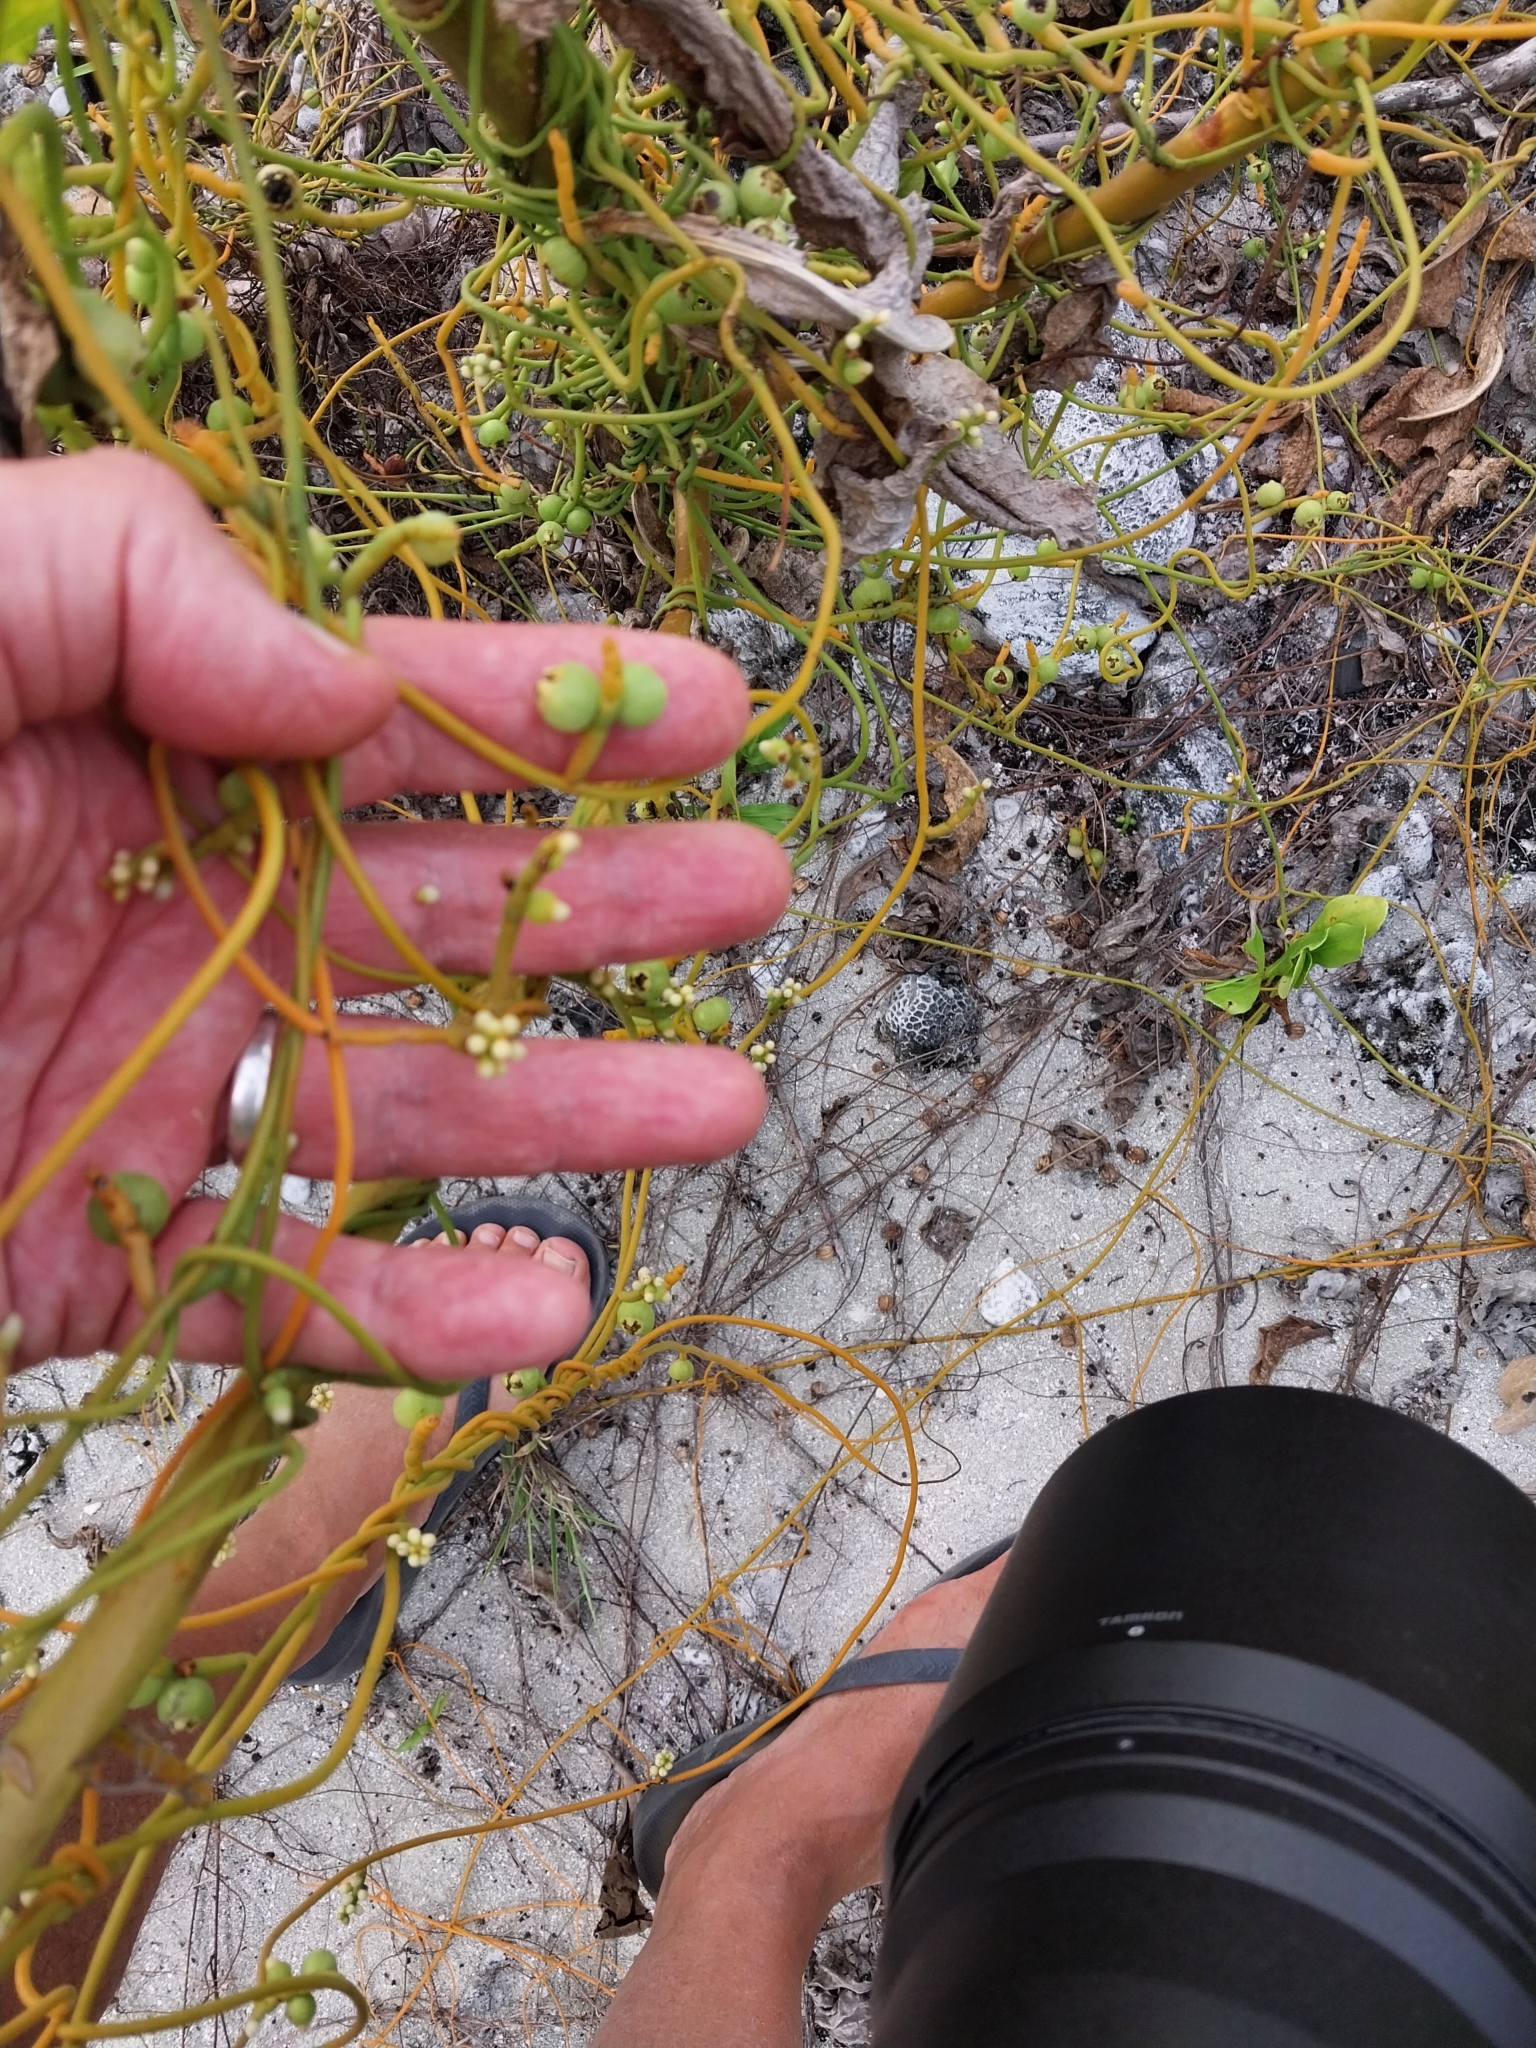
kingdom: Plantae
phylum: Tracheophyta
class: Magnoliopsida
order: Laurales
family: Lauraceae
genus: Cassytha
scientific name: Cassytha filiformis
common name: Dodder-laurel
